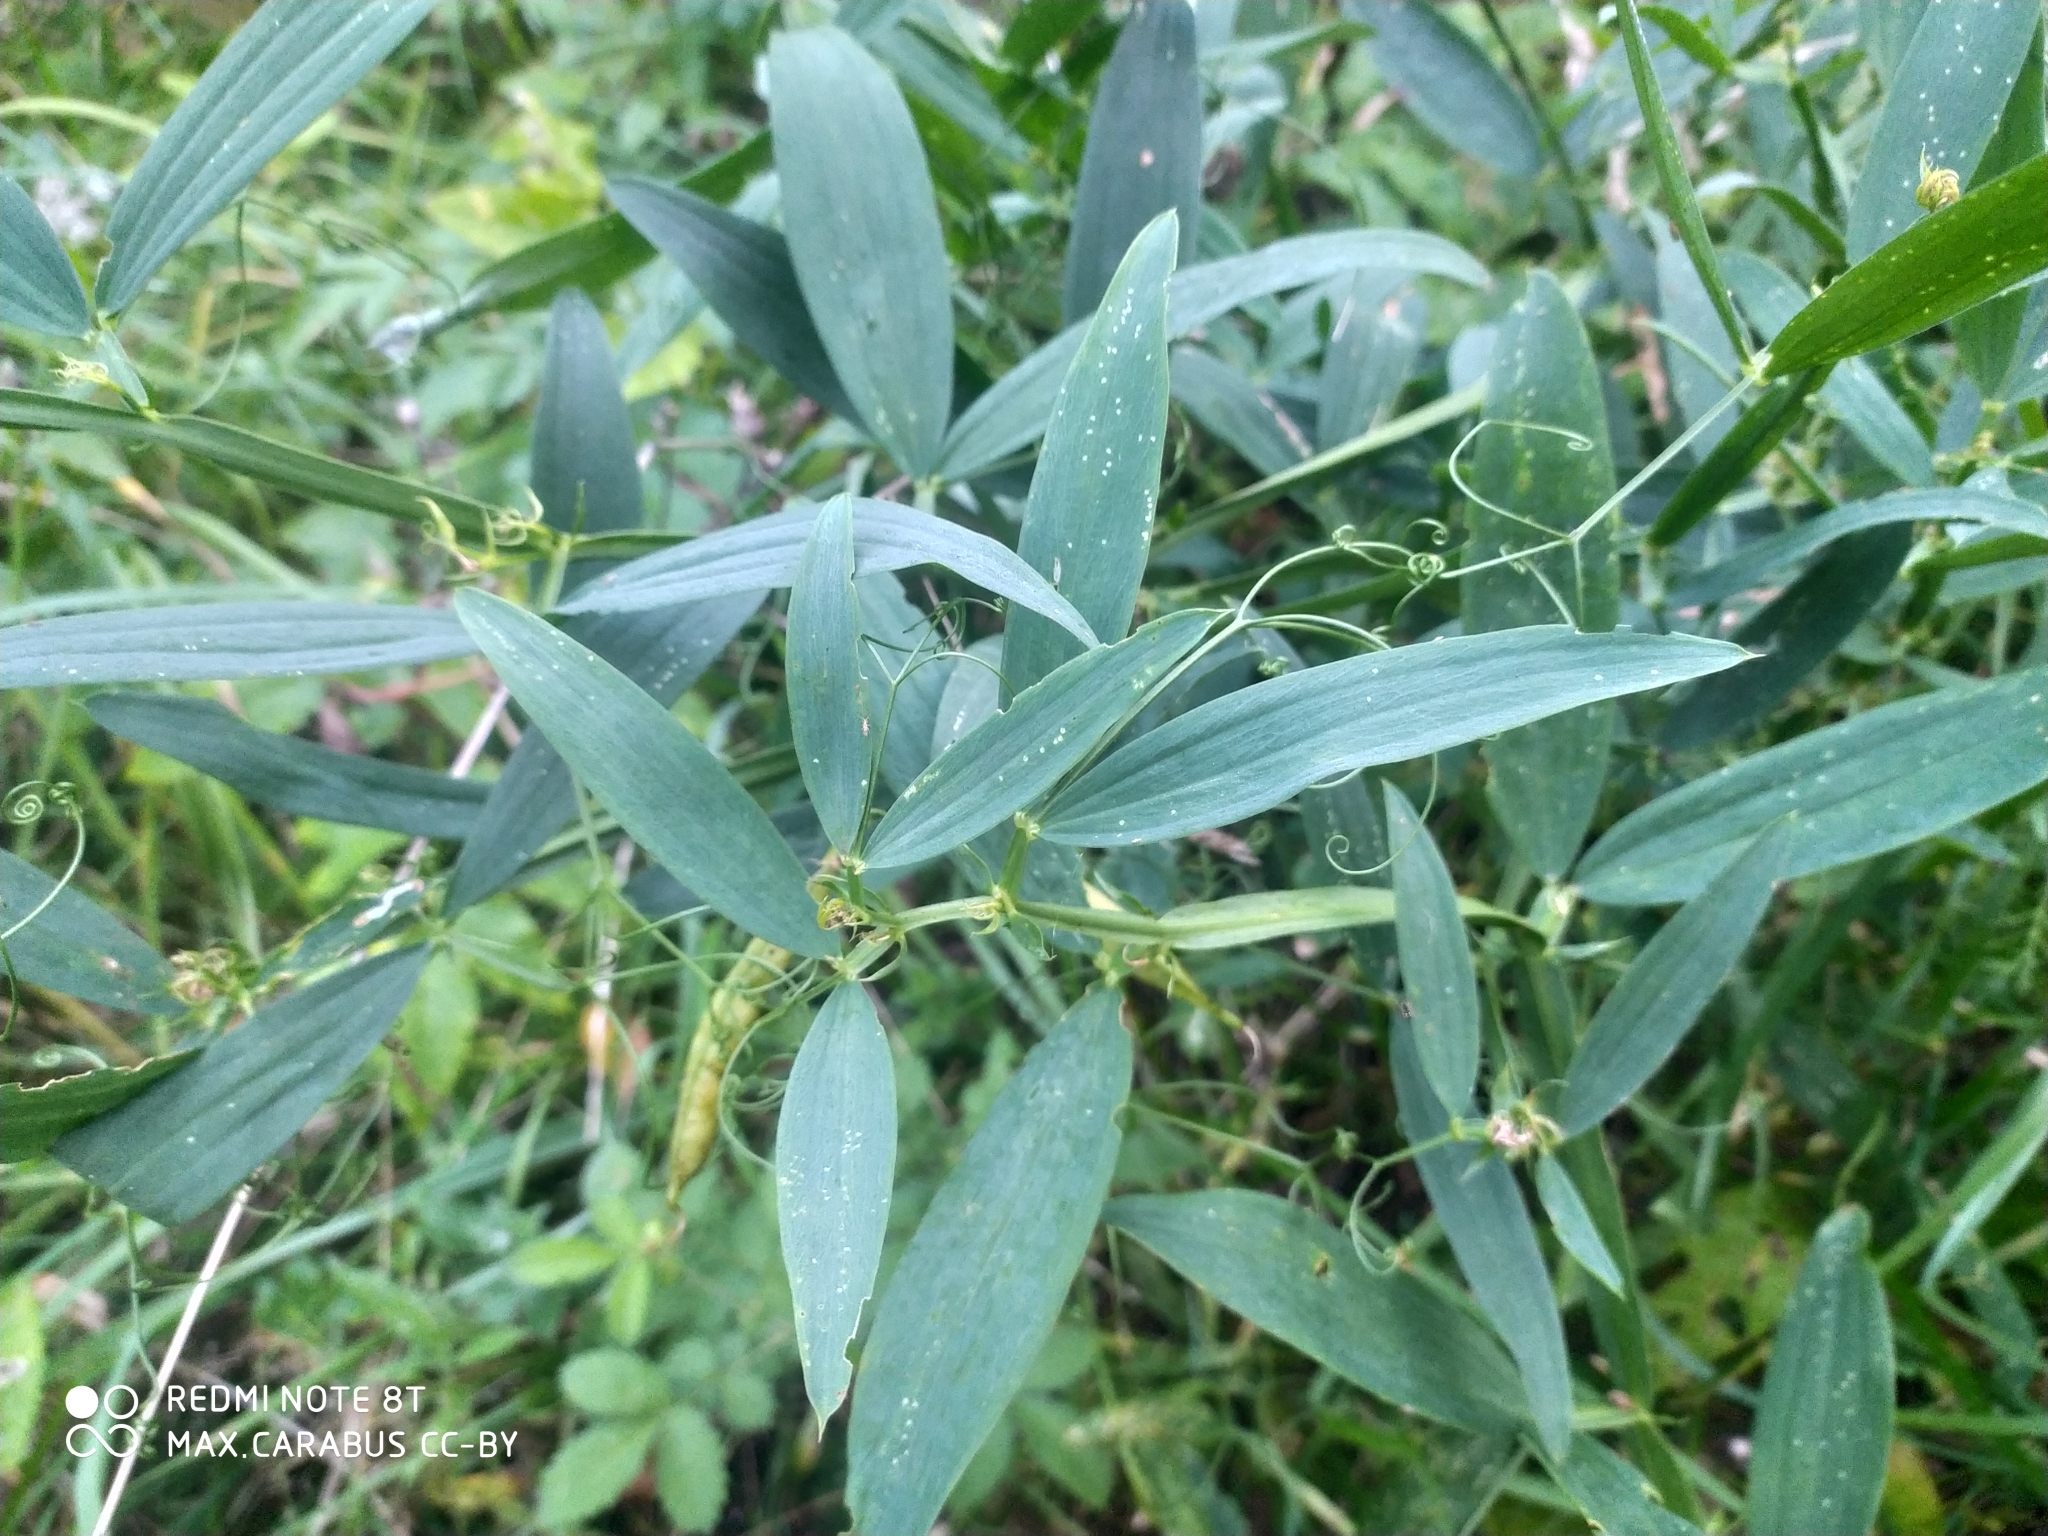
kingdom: Plantae
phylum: Tracheophyta
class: Magnoliopsida
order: Fabales
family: Fabaceae
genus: Lathyrus
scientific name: Lathyrus sylvestris
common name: Flat pea
